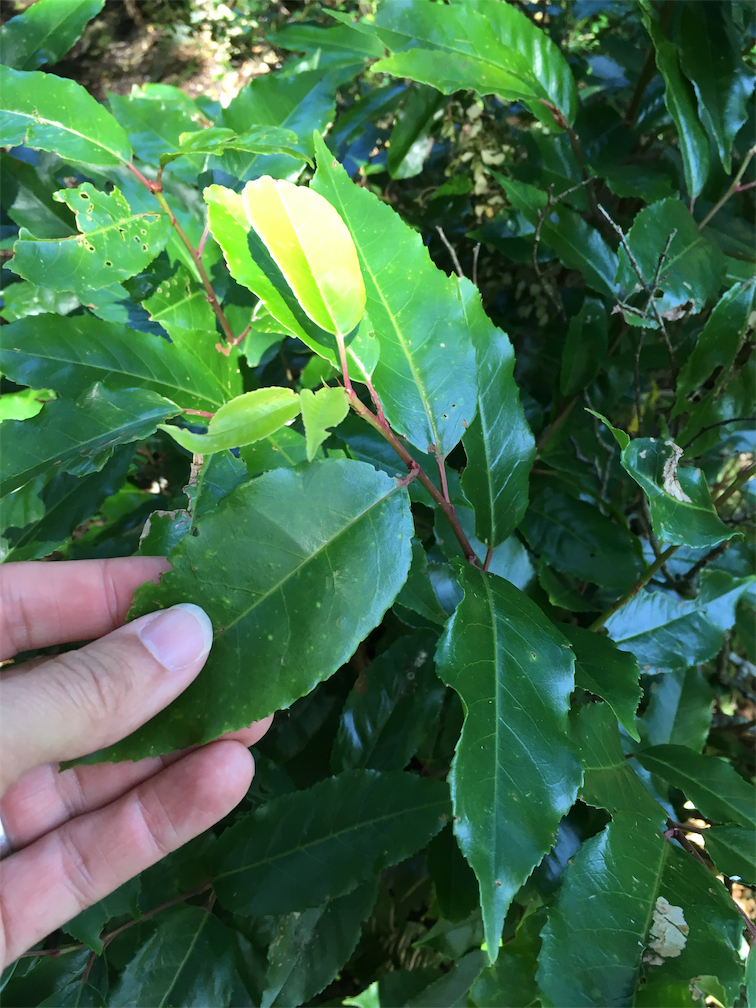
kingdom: Plantae
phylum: Tracheophyta
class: Magnoliopsida
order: Rosales
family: Rosaceae
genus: Prunus
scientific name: Prunus lusitanica
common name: Portugal laurel
